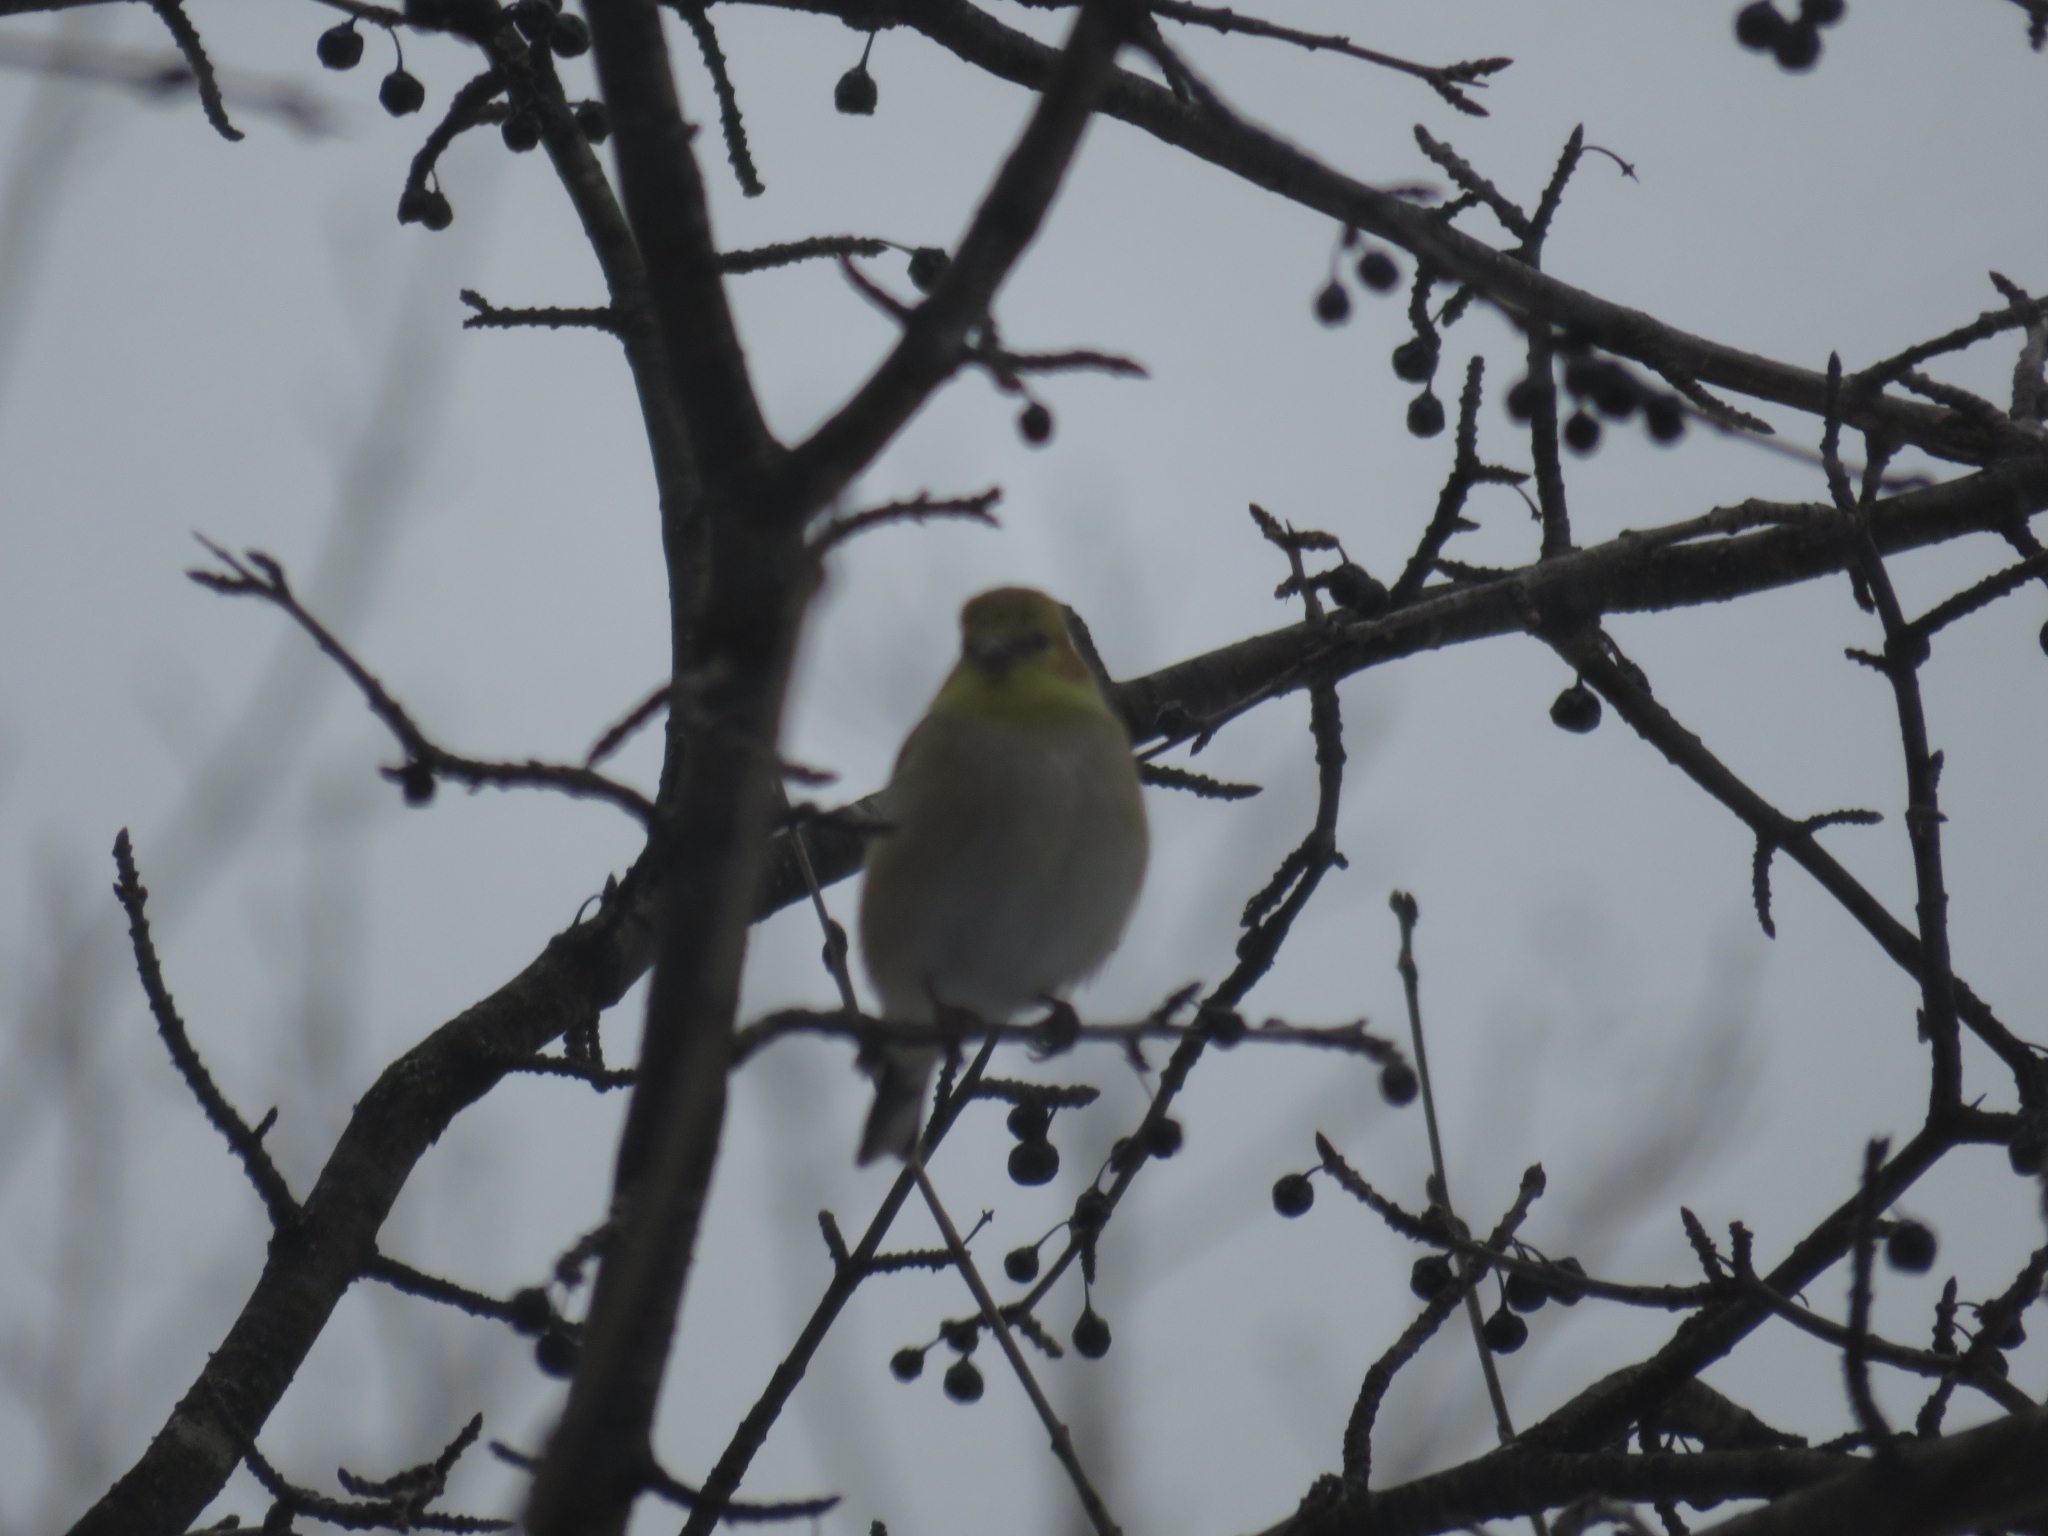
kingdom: Animalia
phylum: Chordata
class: Aves
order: Passeriformes
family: Fringillidae
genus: Spinus
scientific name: Spinus tristis
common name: American goldfinch
